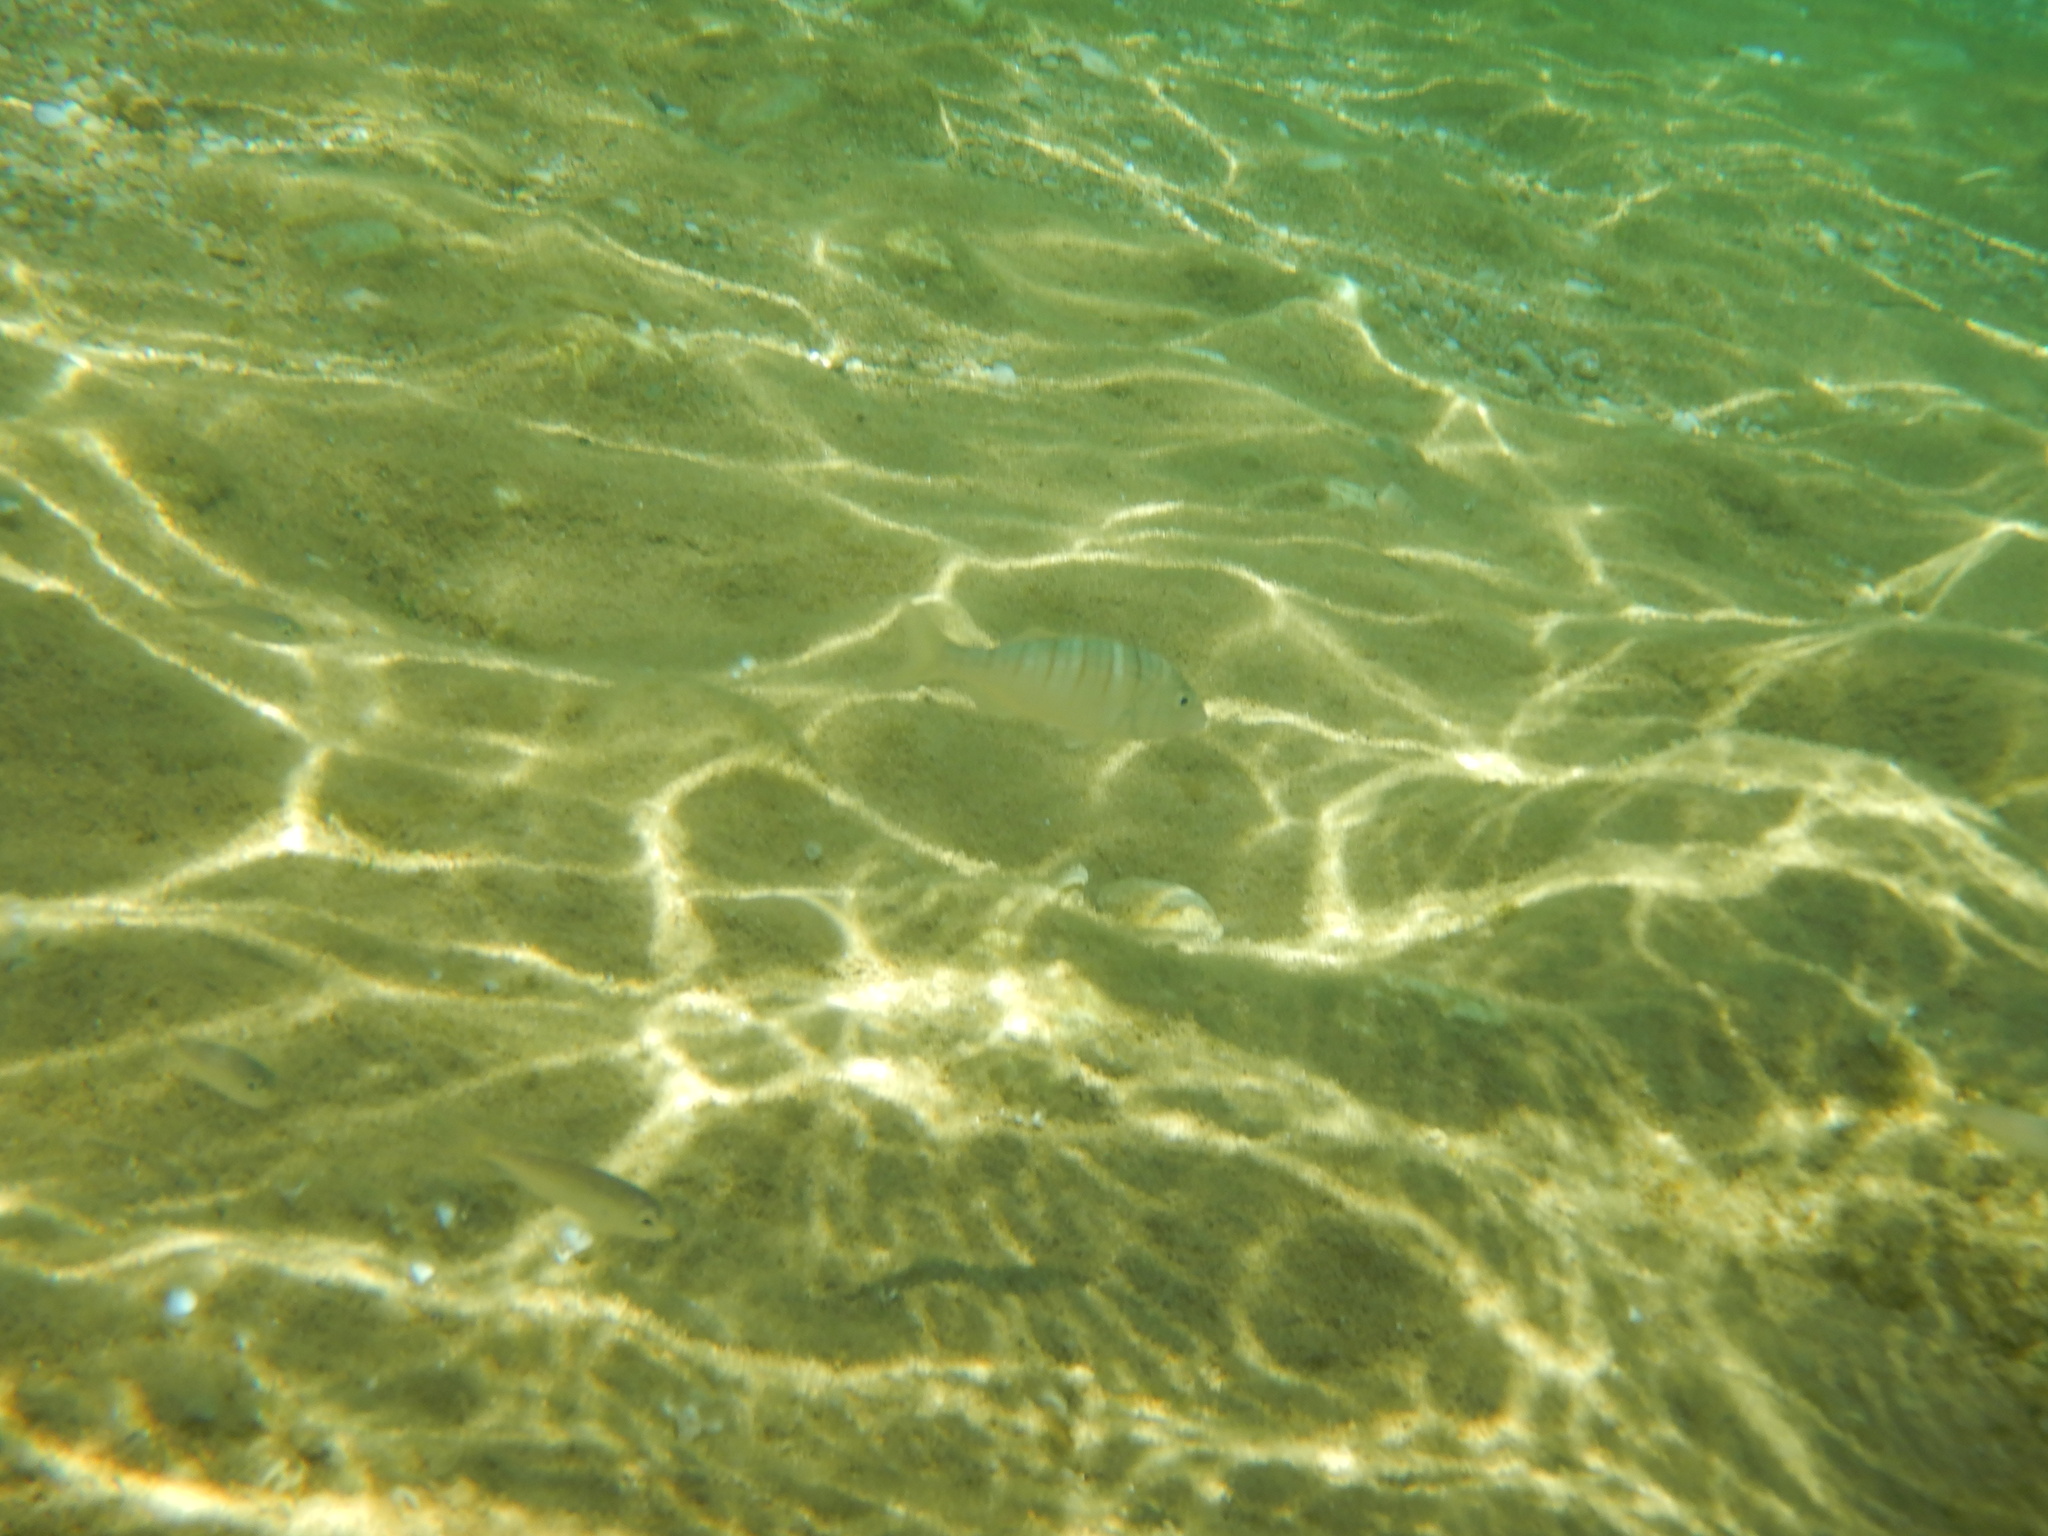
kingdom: Animalia
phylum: Chordata
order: Perciformes
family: Sparidae
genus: Lithognathus
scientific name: Lithognathus mormyrus
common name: Sand steenbras
